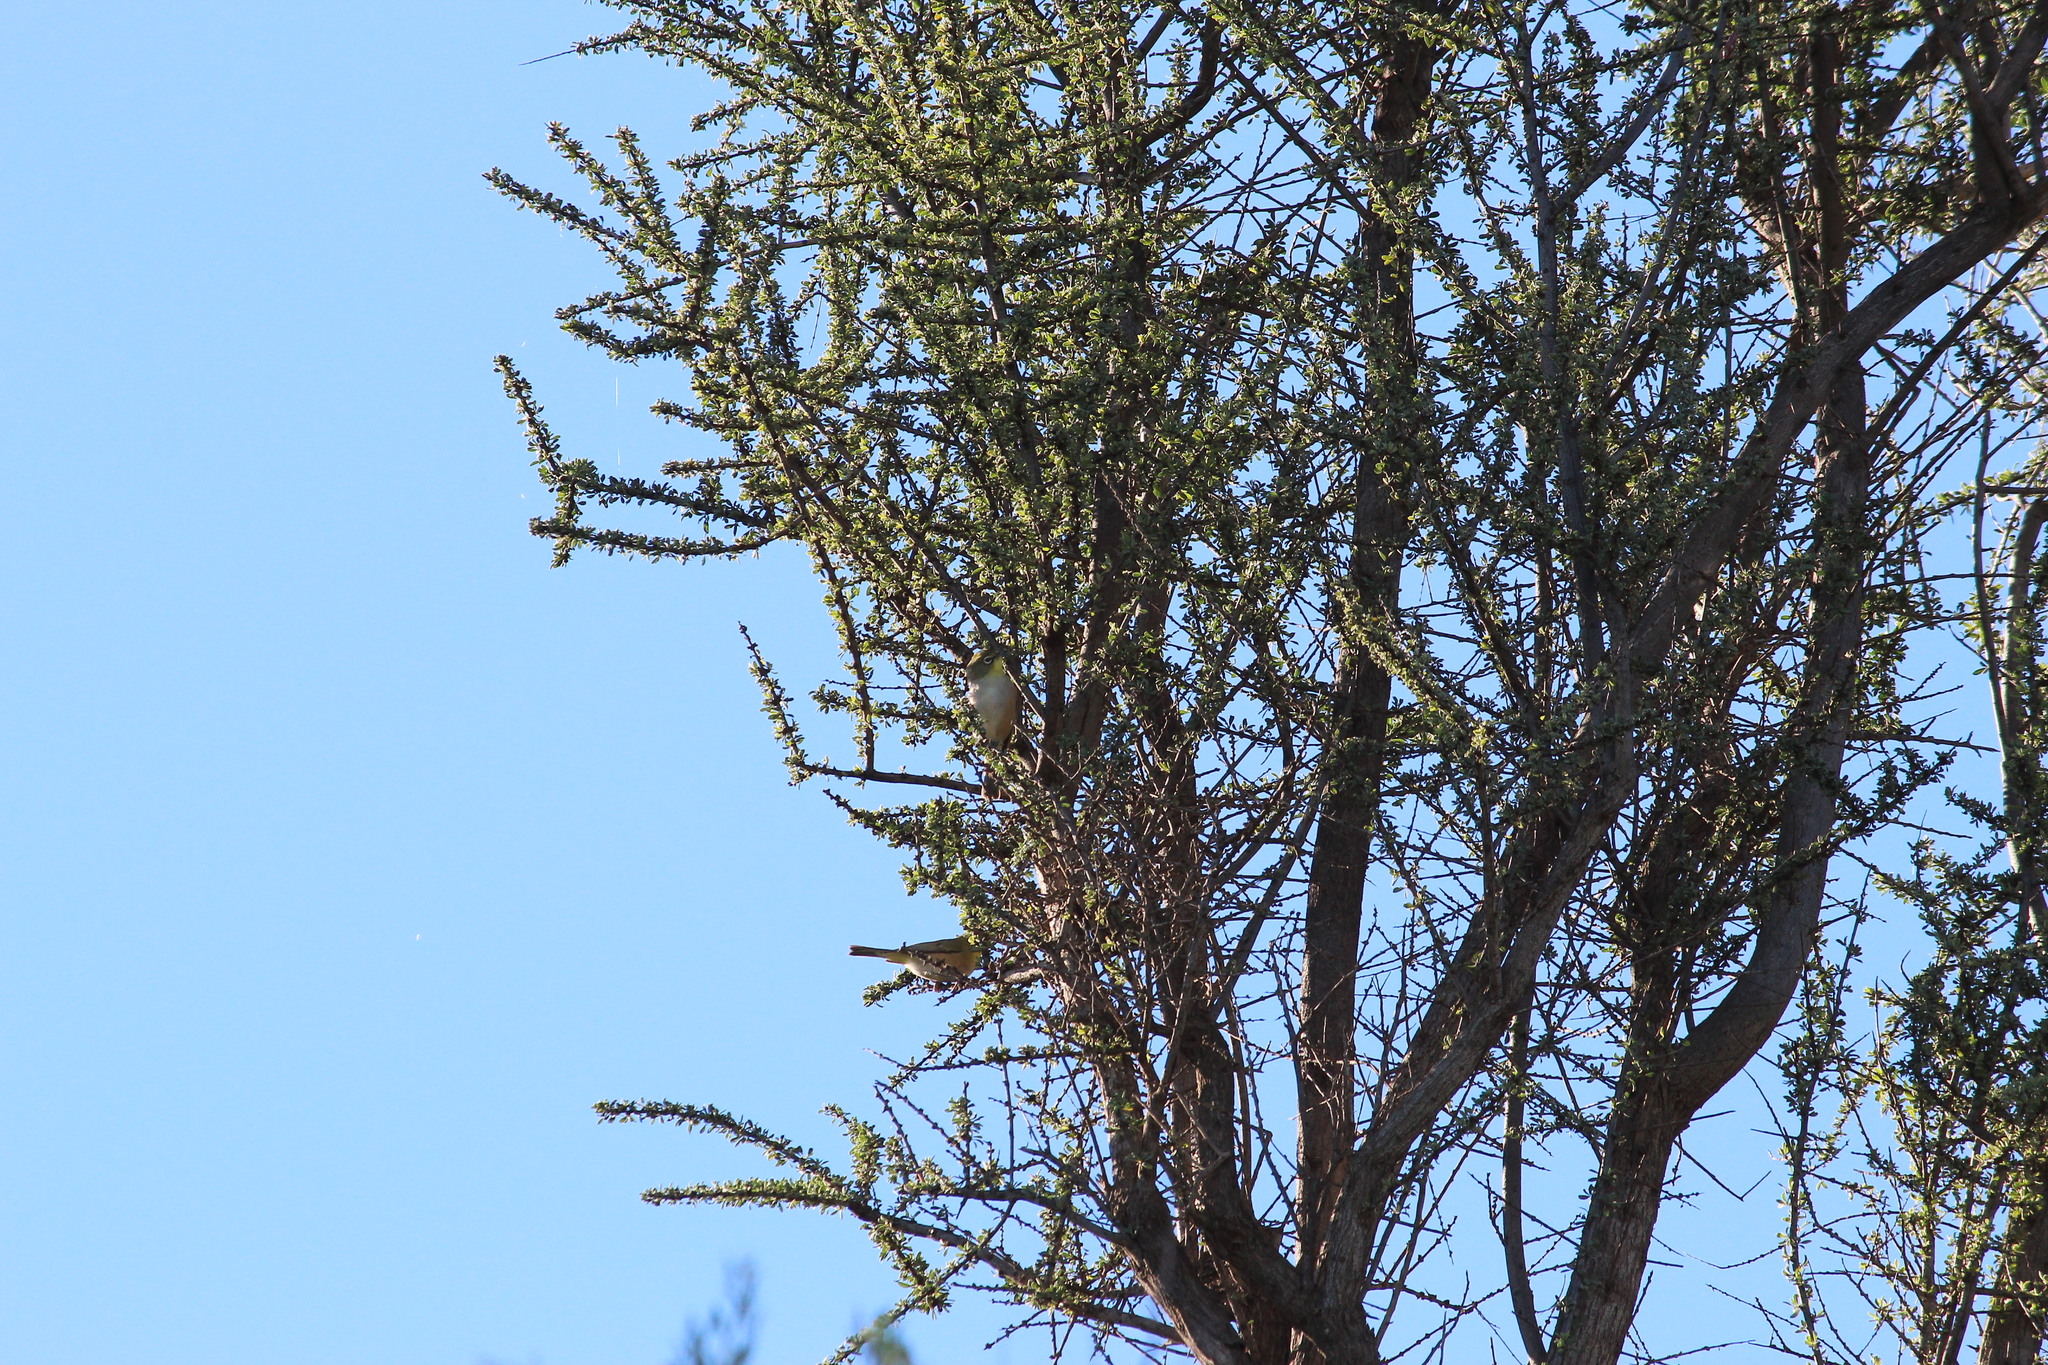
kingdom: Animalia
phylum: Chordata
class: Aves
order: Passeriformes
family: Zosteropidae
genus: Zosterops
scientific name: Zosterops pallidus
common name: Orange river white-eye
